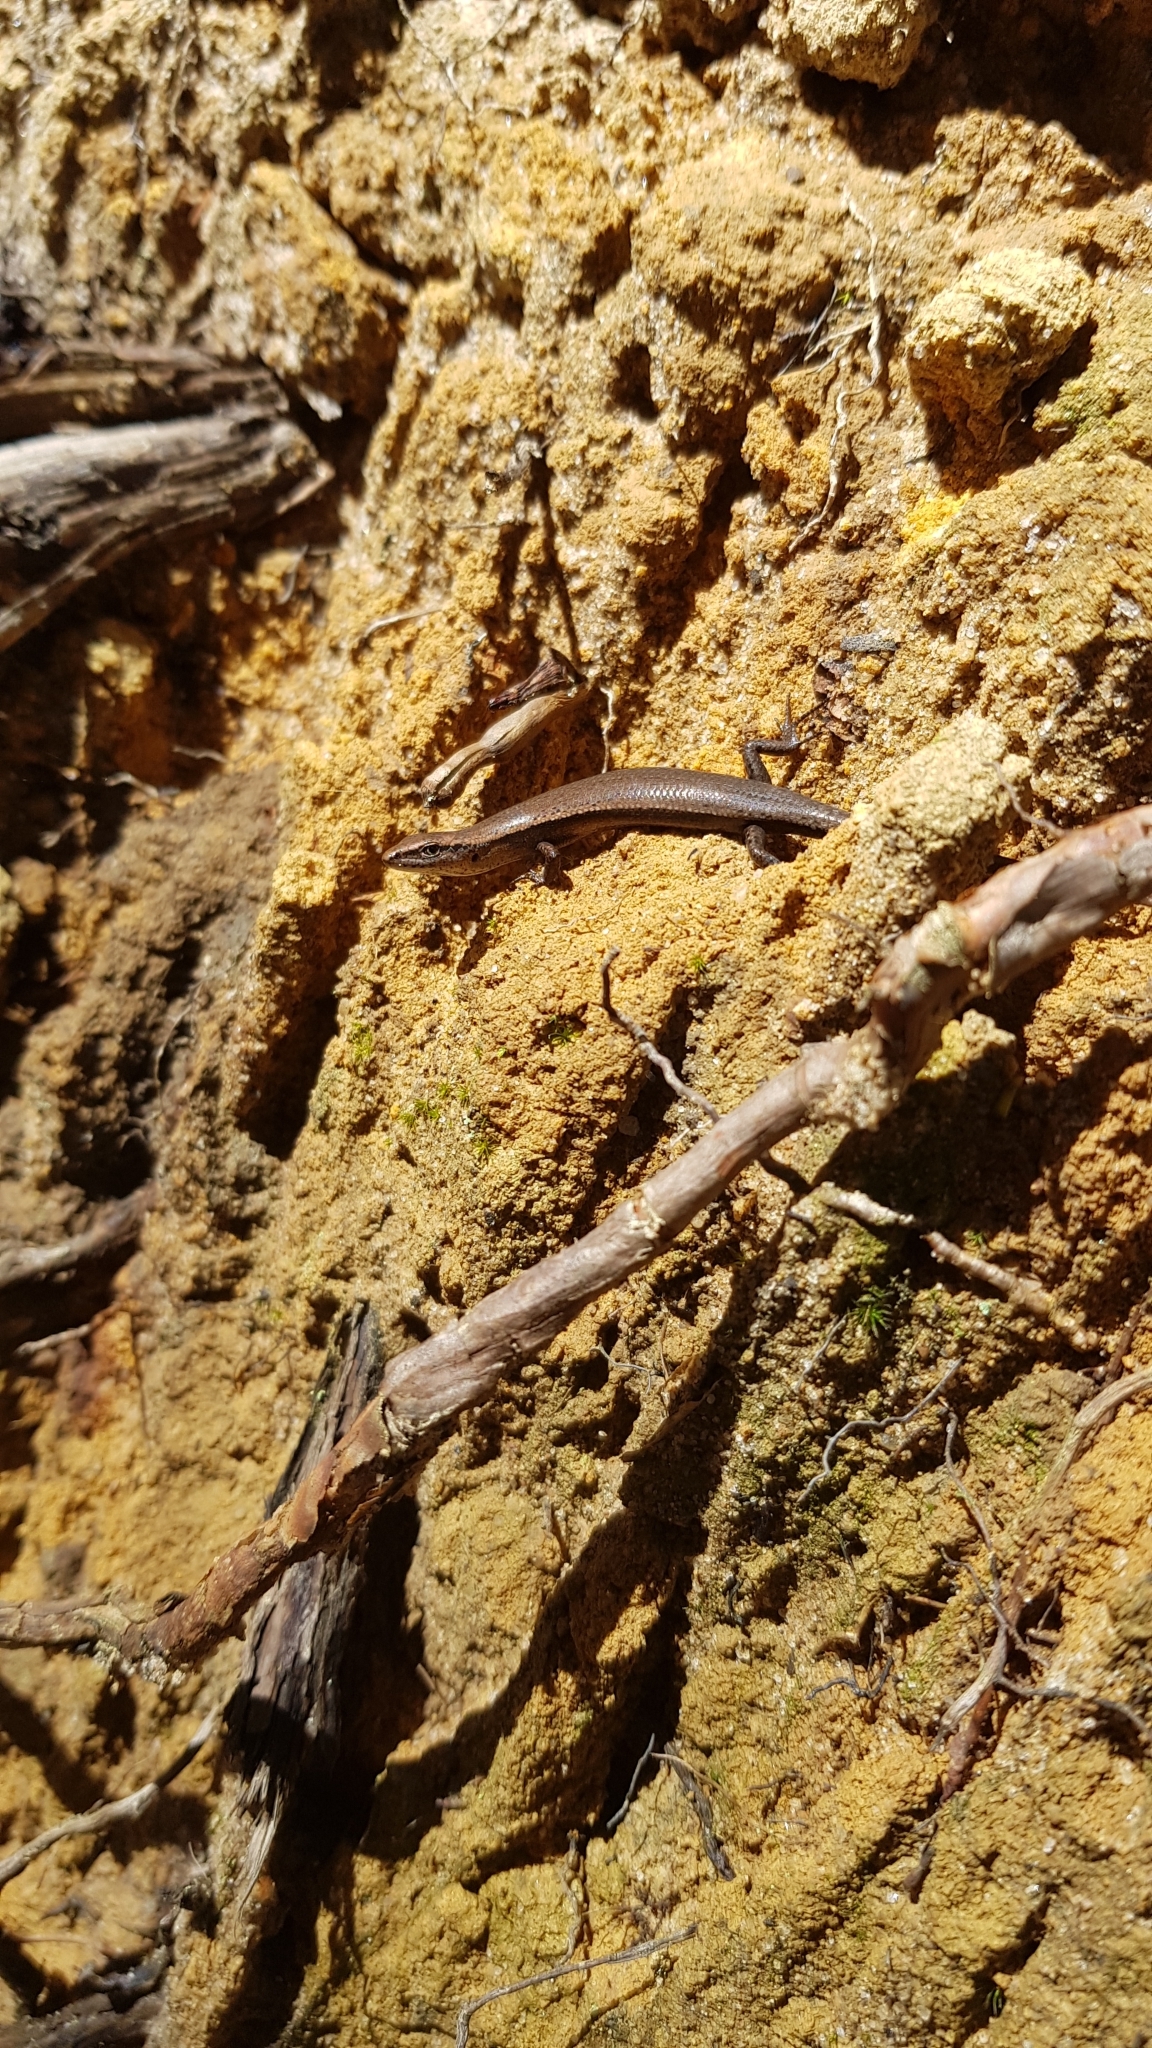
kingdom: Animalia
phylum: Chordata
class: Squamata
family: Scincidae
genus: Lampropholis
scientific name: Lampropholis delicata
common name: Plague skink
